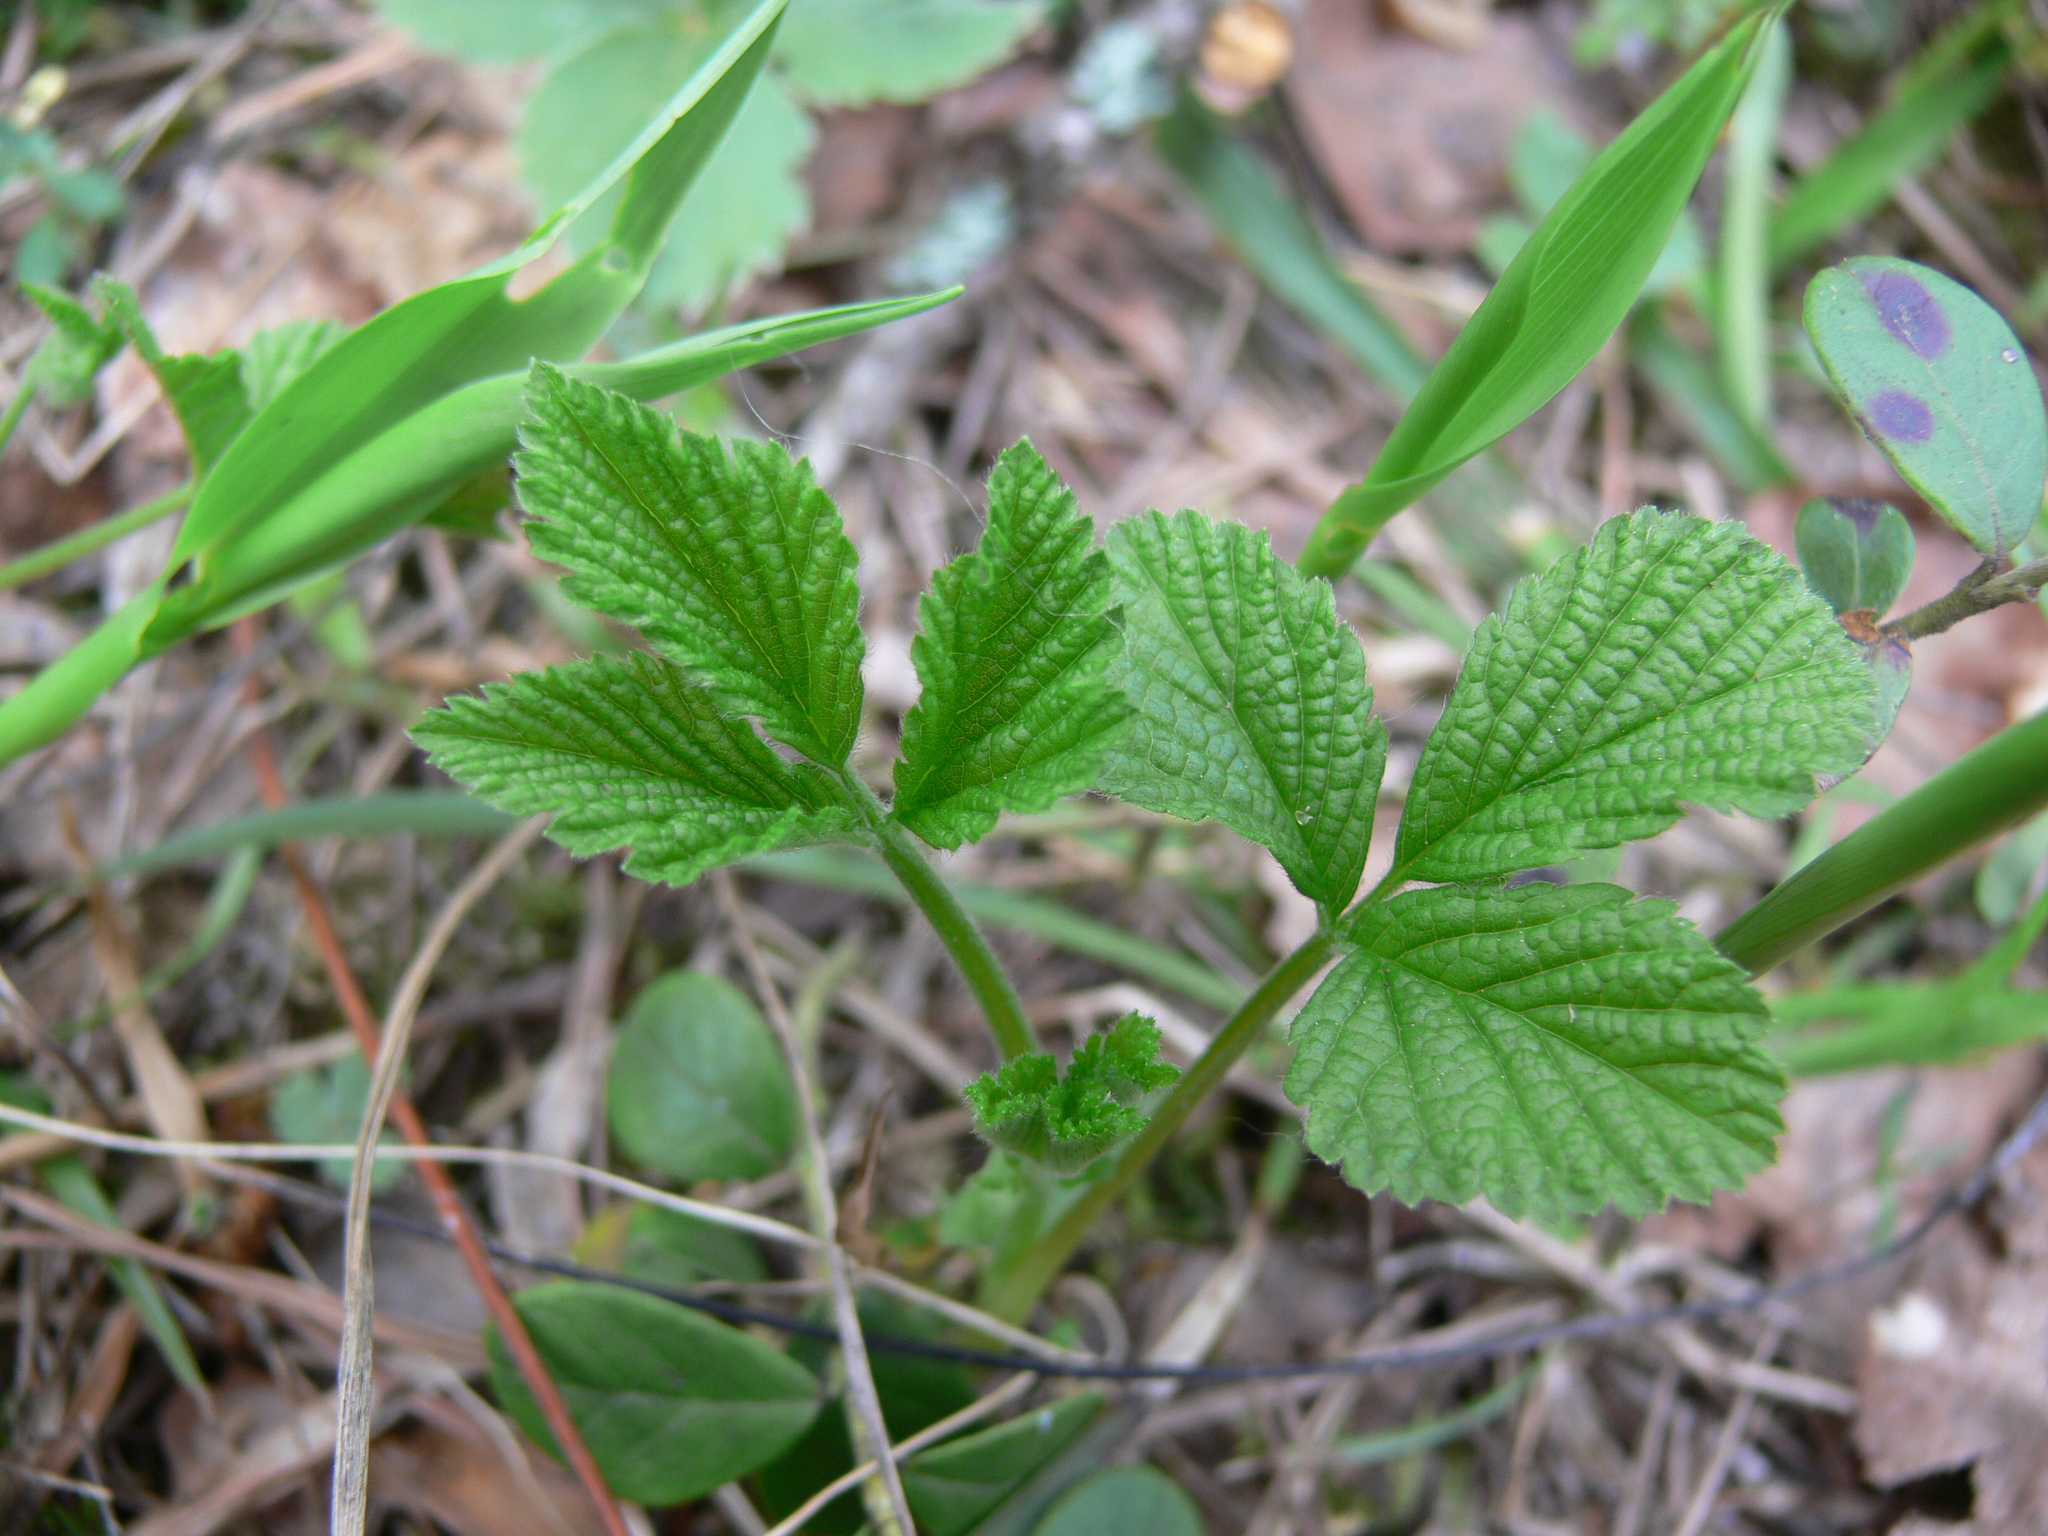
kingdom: Plantae
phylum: Tracheophyta
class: Magnoliopsida
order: Rosales
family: Rosaceae
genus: Rubus
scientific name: Rubus saxatilis
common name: Stone bramble
